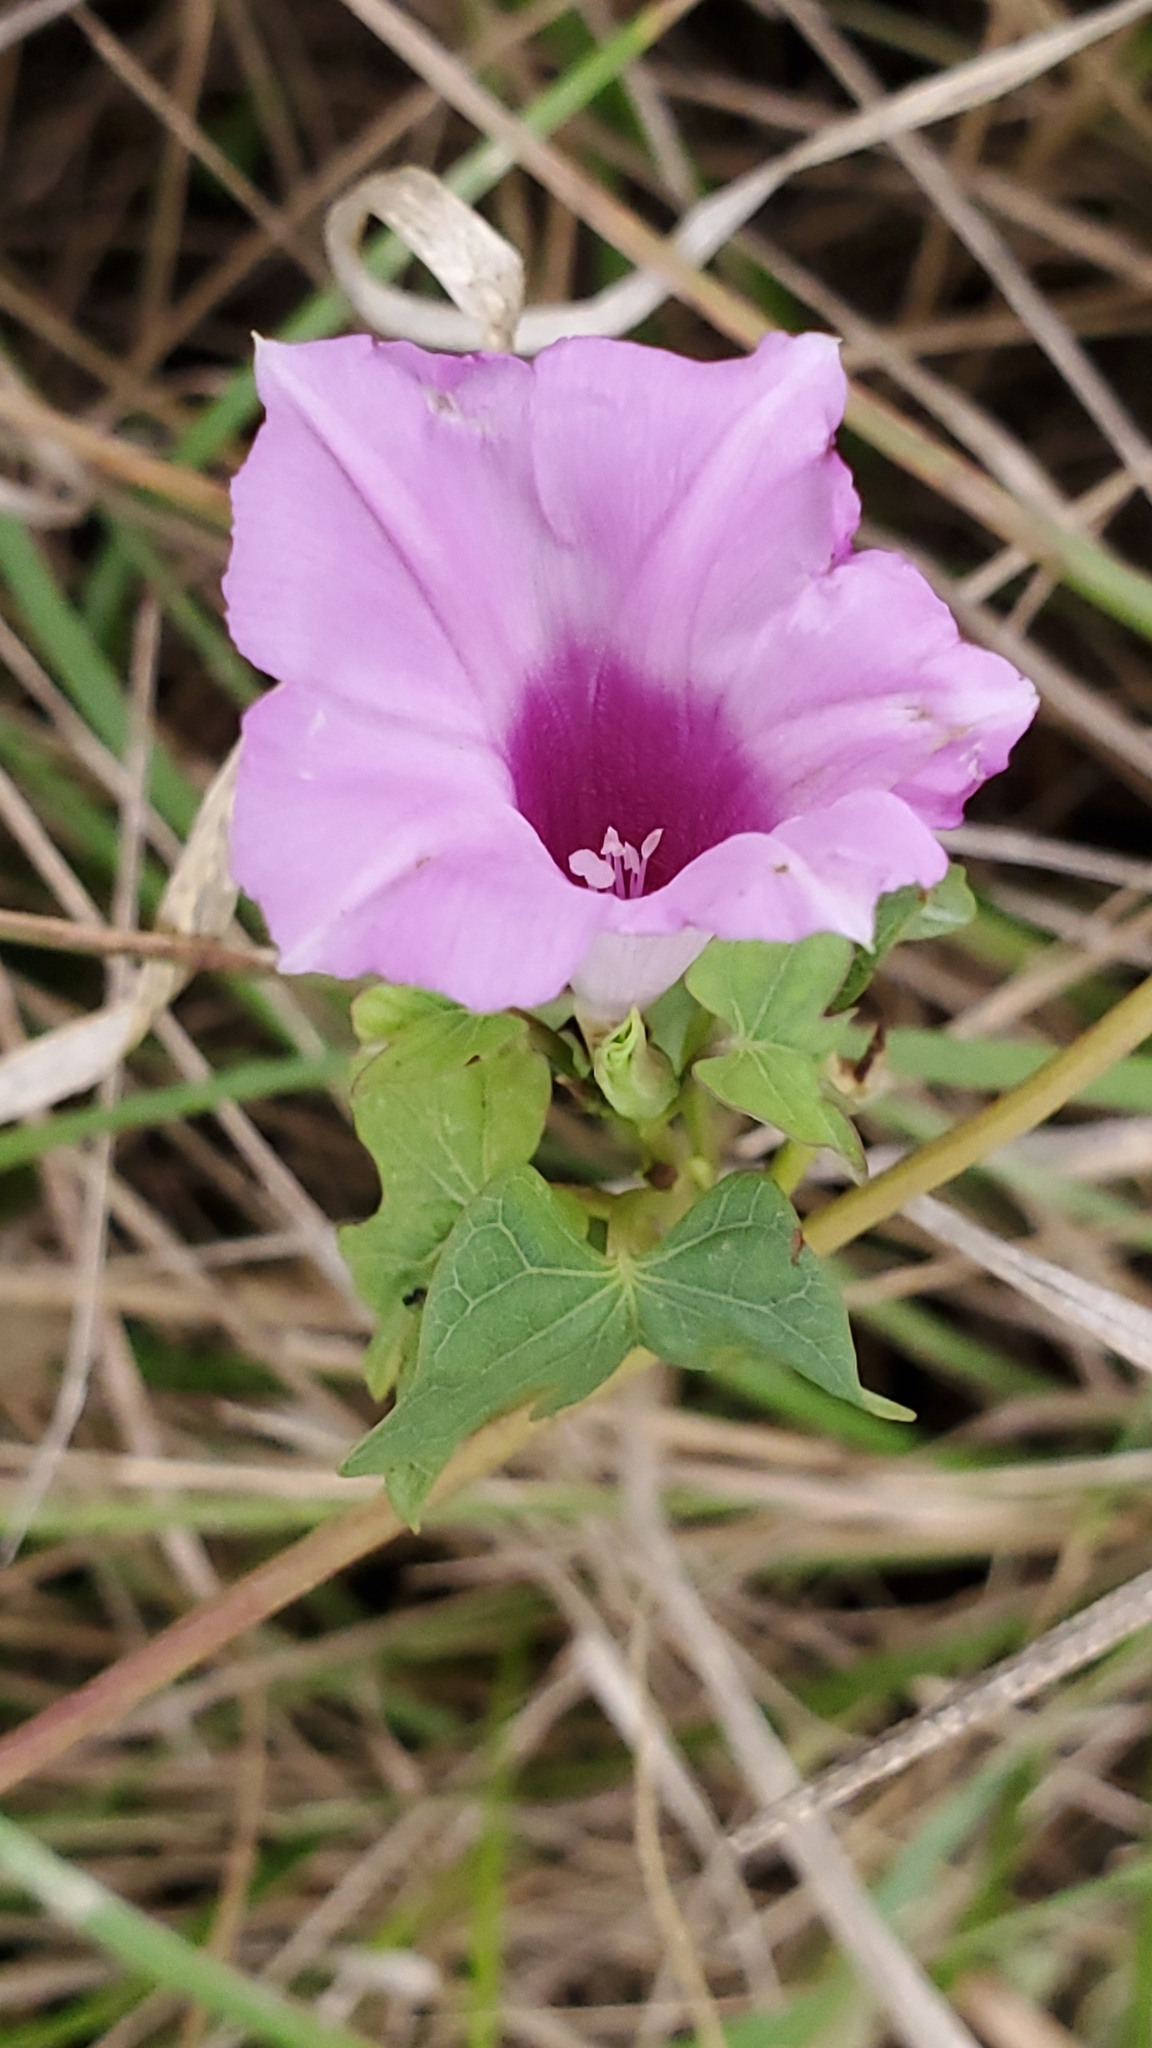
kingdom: Plantae
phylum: Tracheophyta
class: Magnoliopsida
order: Solanales
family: Convolvulaceae
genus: Ipomoea
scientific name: Ipomoea cordatotriloba
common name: Cotton morning glory
